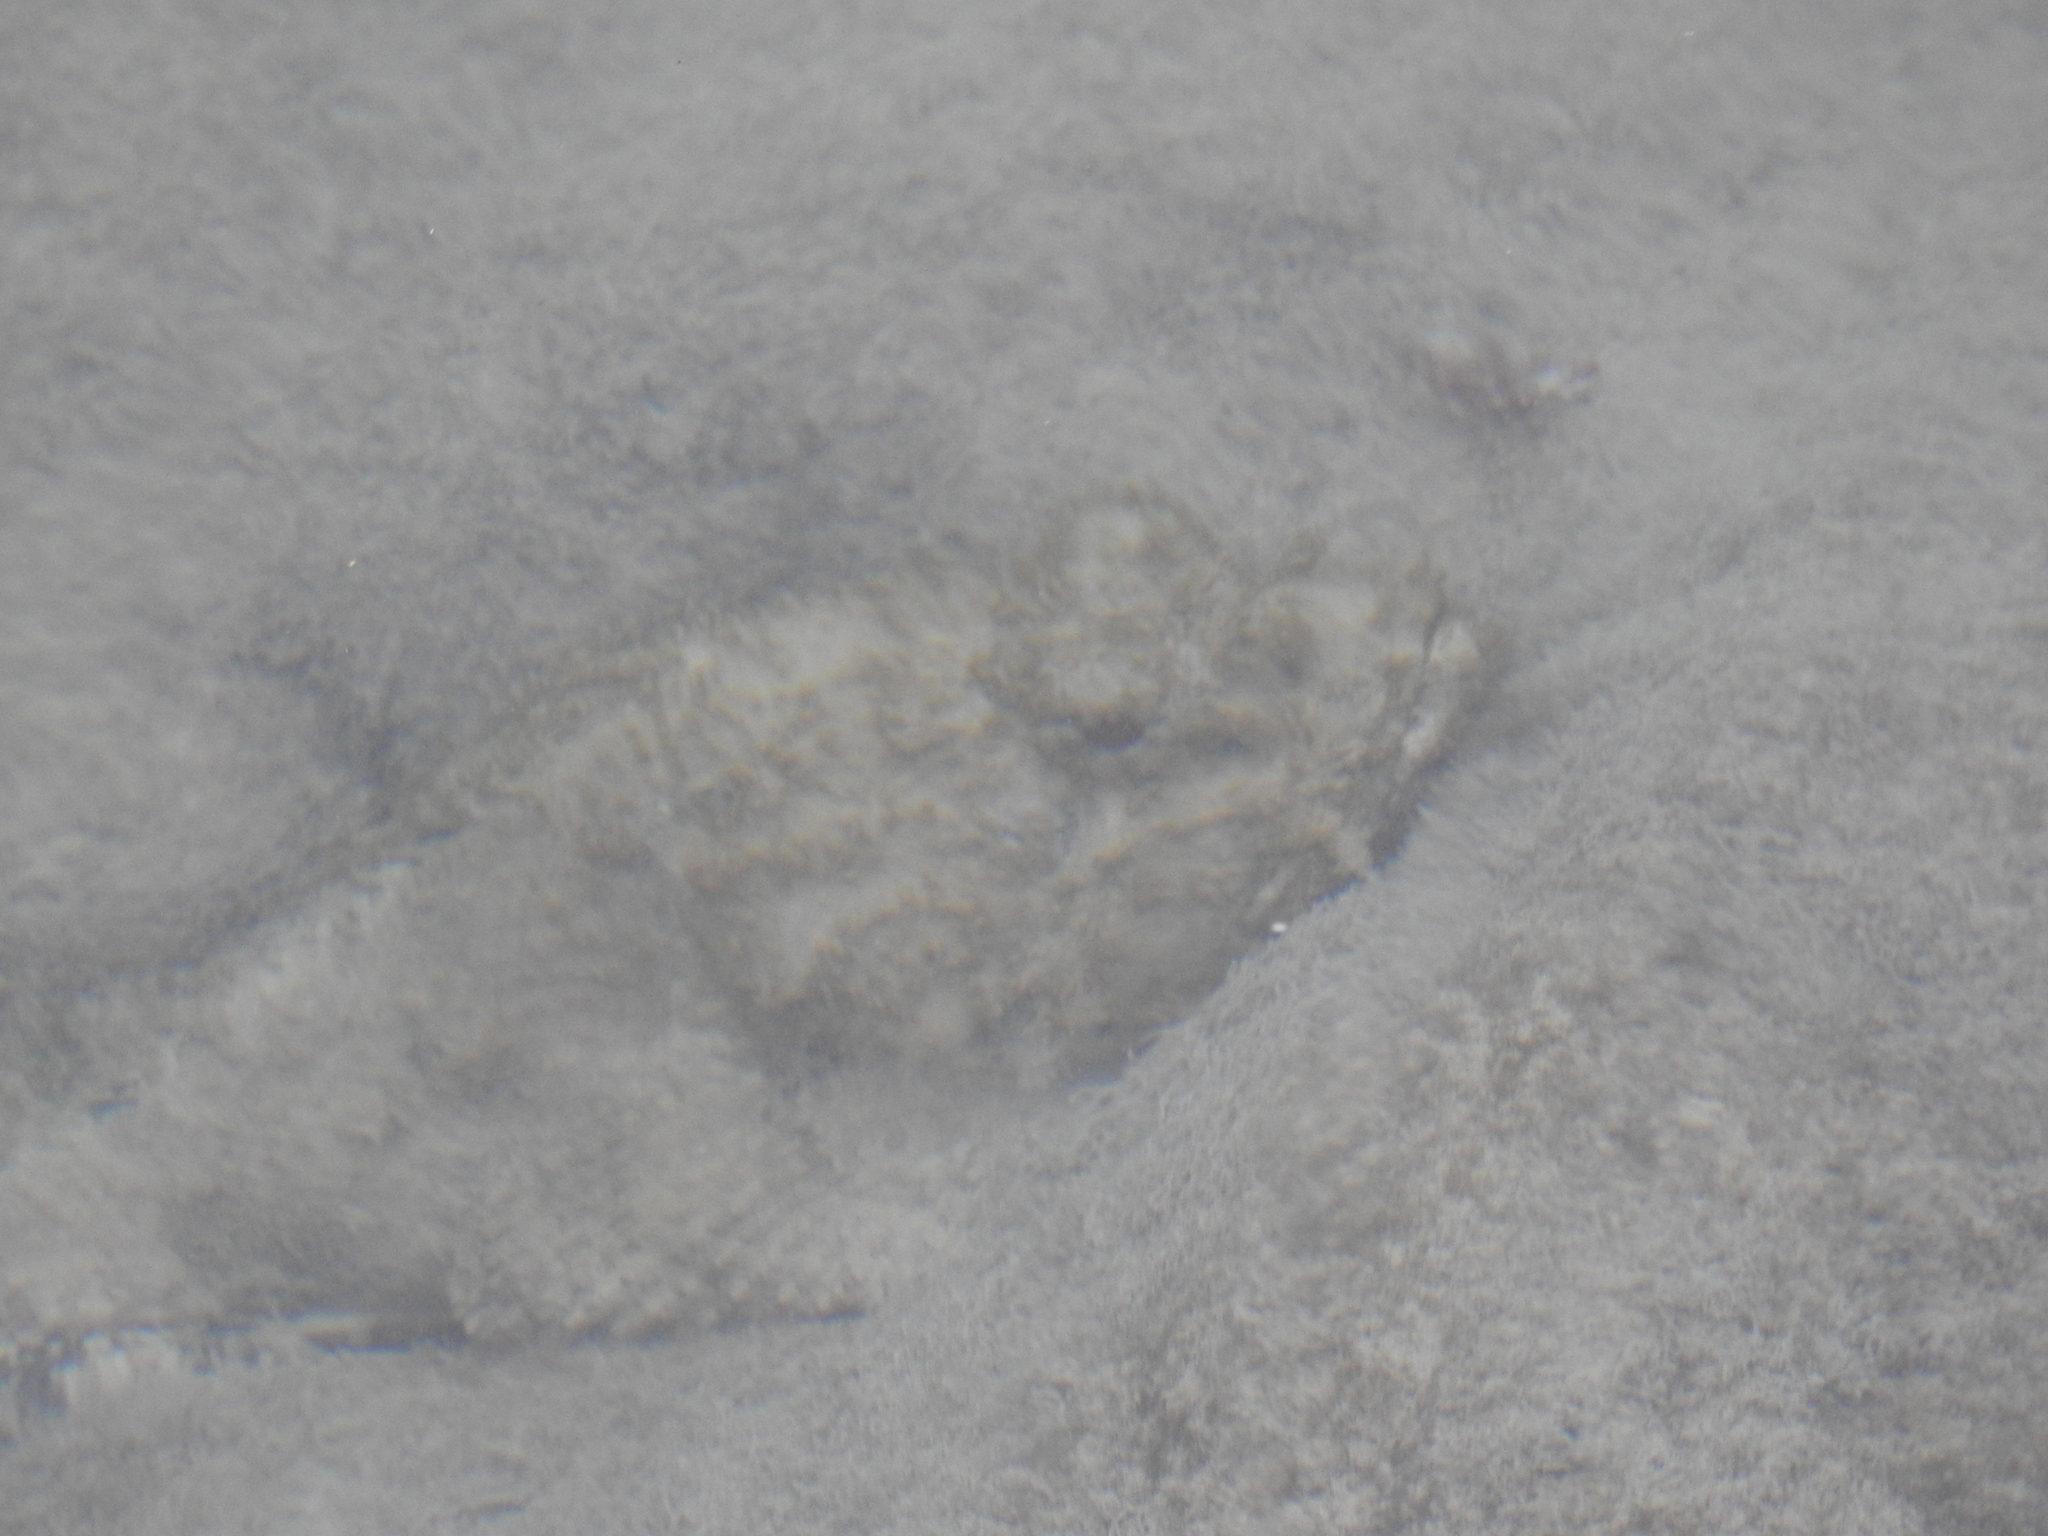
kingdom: Animalia
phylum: Chordata
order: Scorpaeniformes
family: Scorpaenidae
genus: Scorpaena
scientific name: Scorpaena plumieri
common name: Spotted scorpionfish
